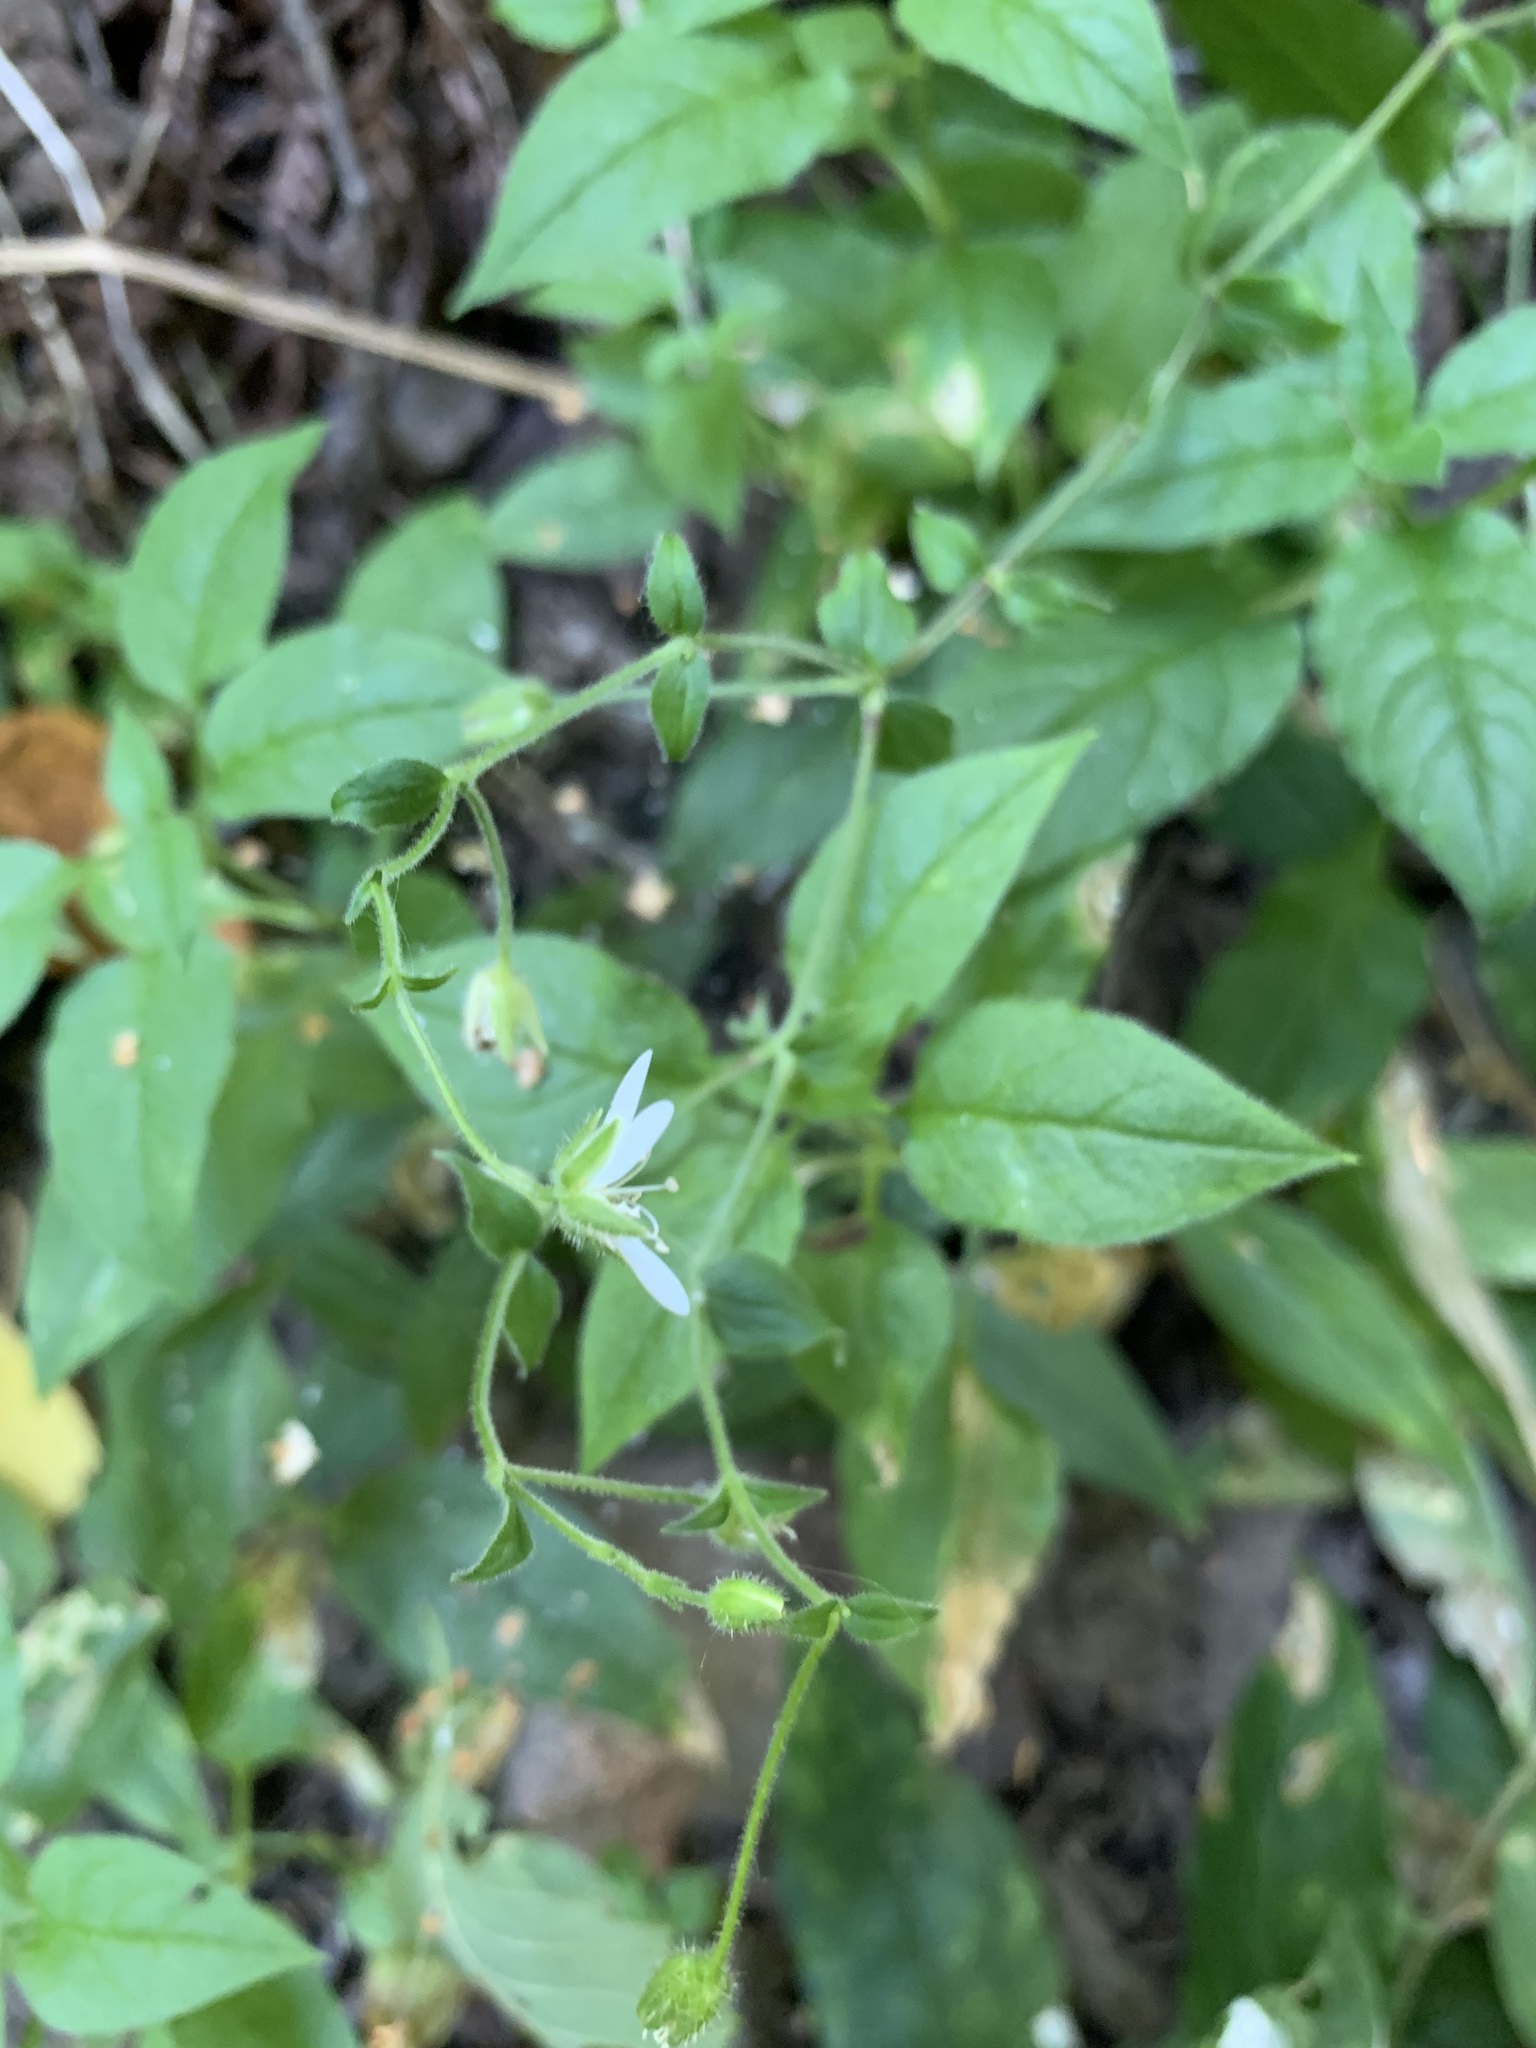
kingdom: Plantae
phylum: Tracheophyta
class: Magnoliopsida
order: Caryophyllales
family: Caryophyllaceae
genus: Stellaria
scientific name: Stellaria aquatica
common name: Water chickweed
